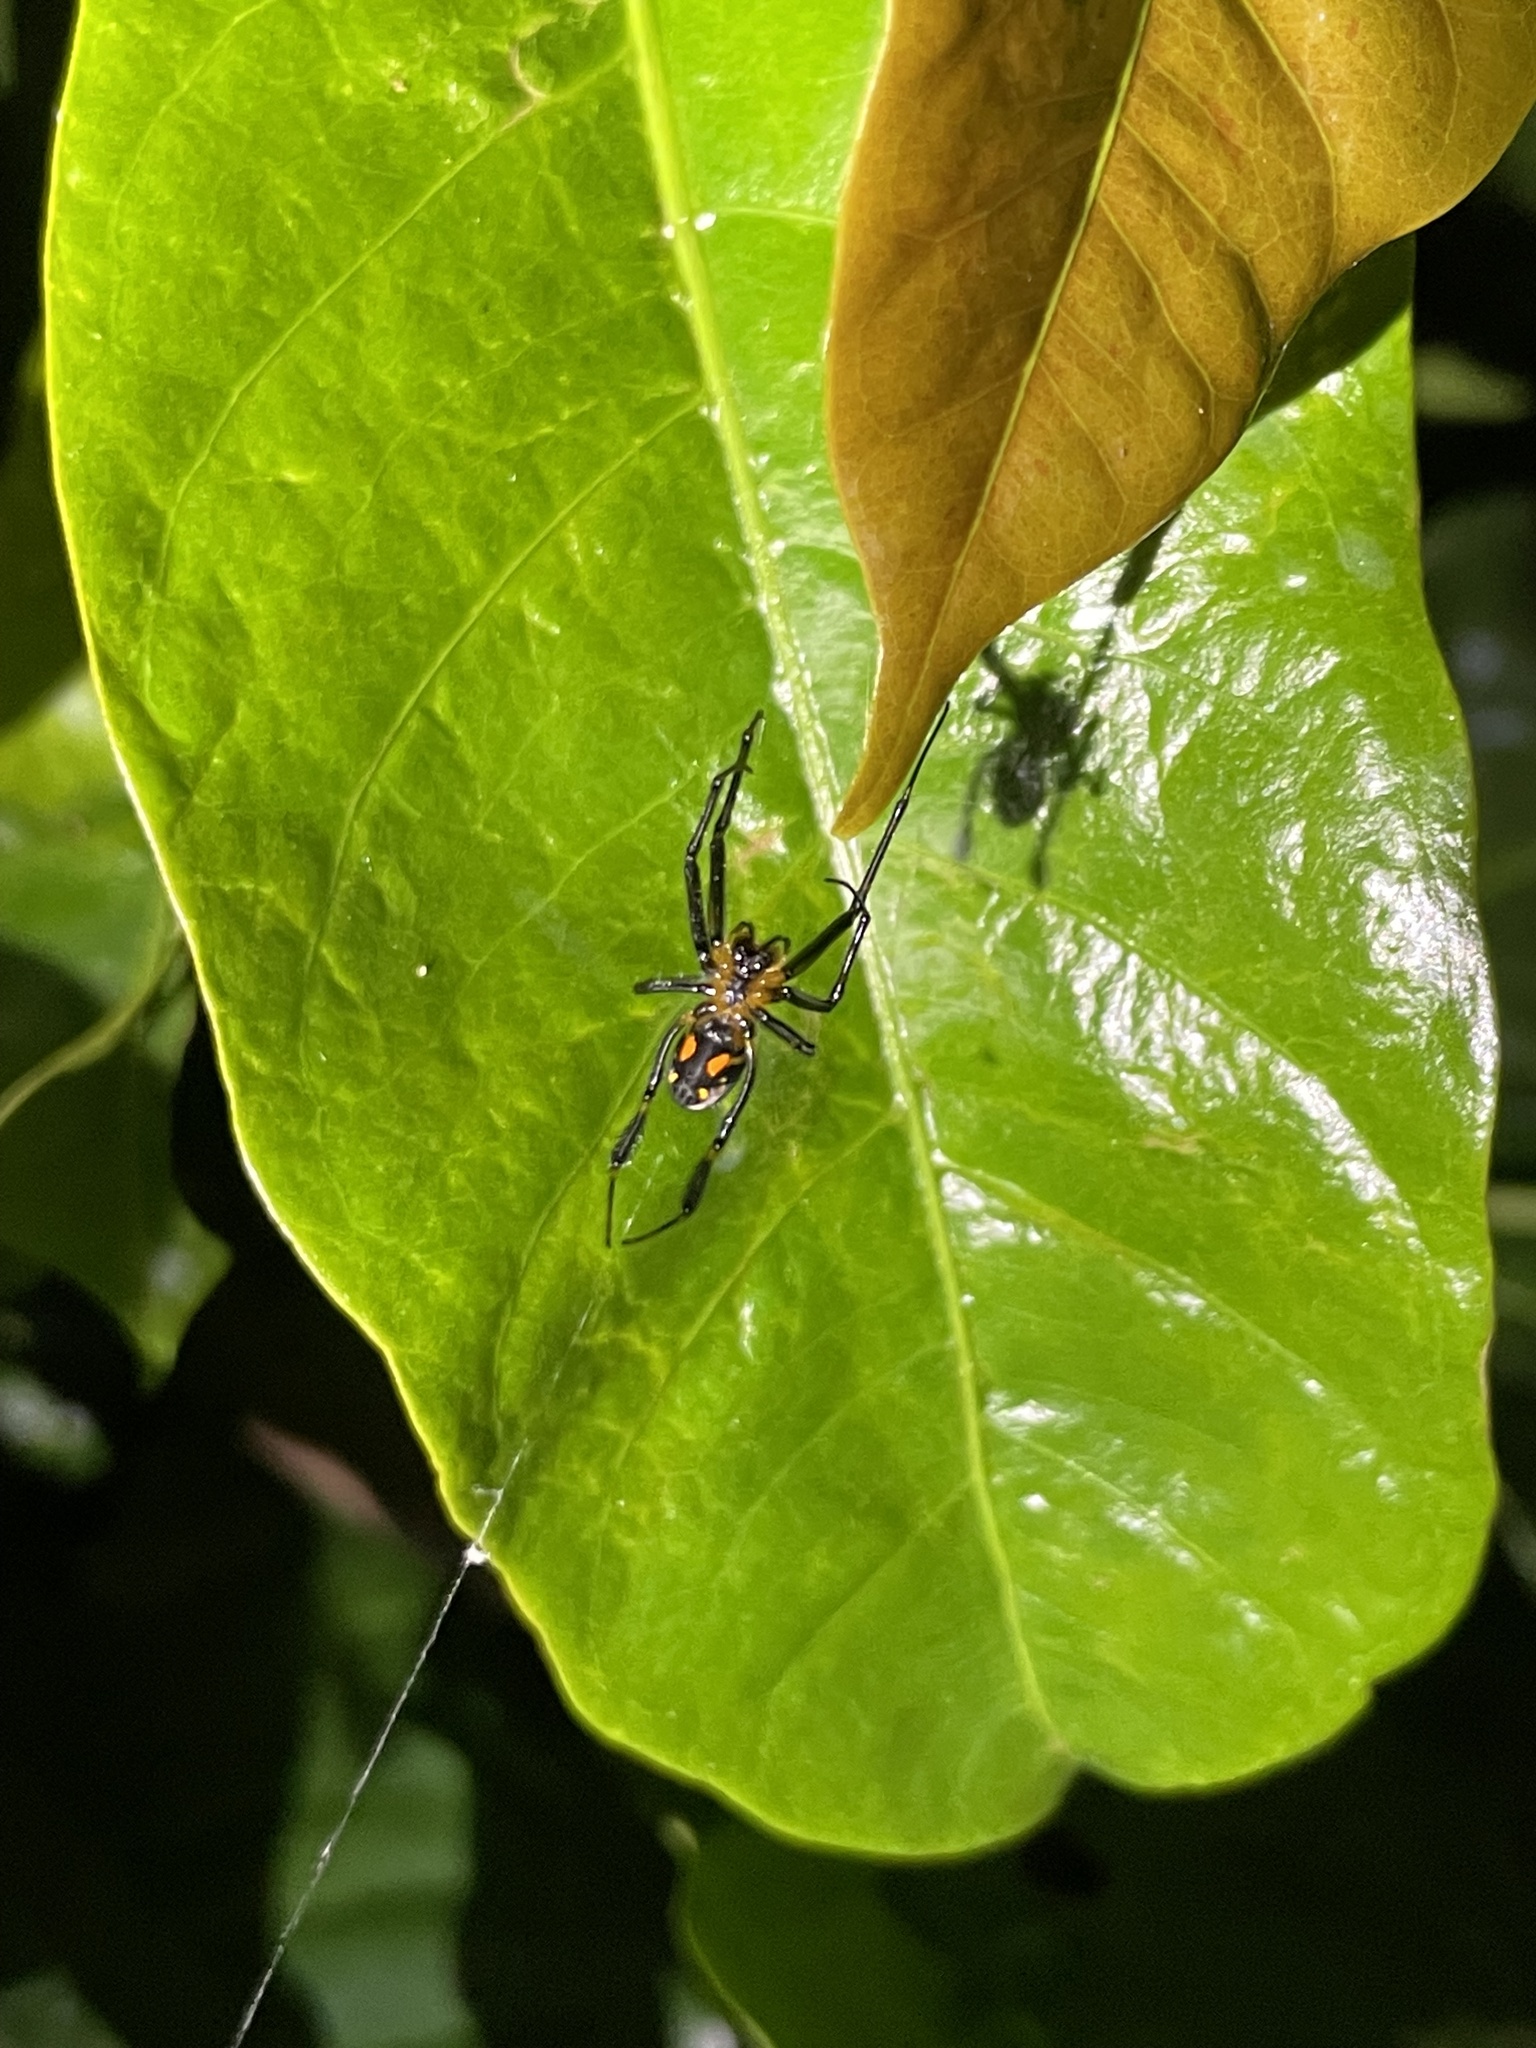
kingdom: Animalia
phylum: Arthropoda
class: Arachnida
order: Araneae
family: Tetragnathidae
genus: Leucauge
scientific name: Leucauge fastigata
